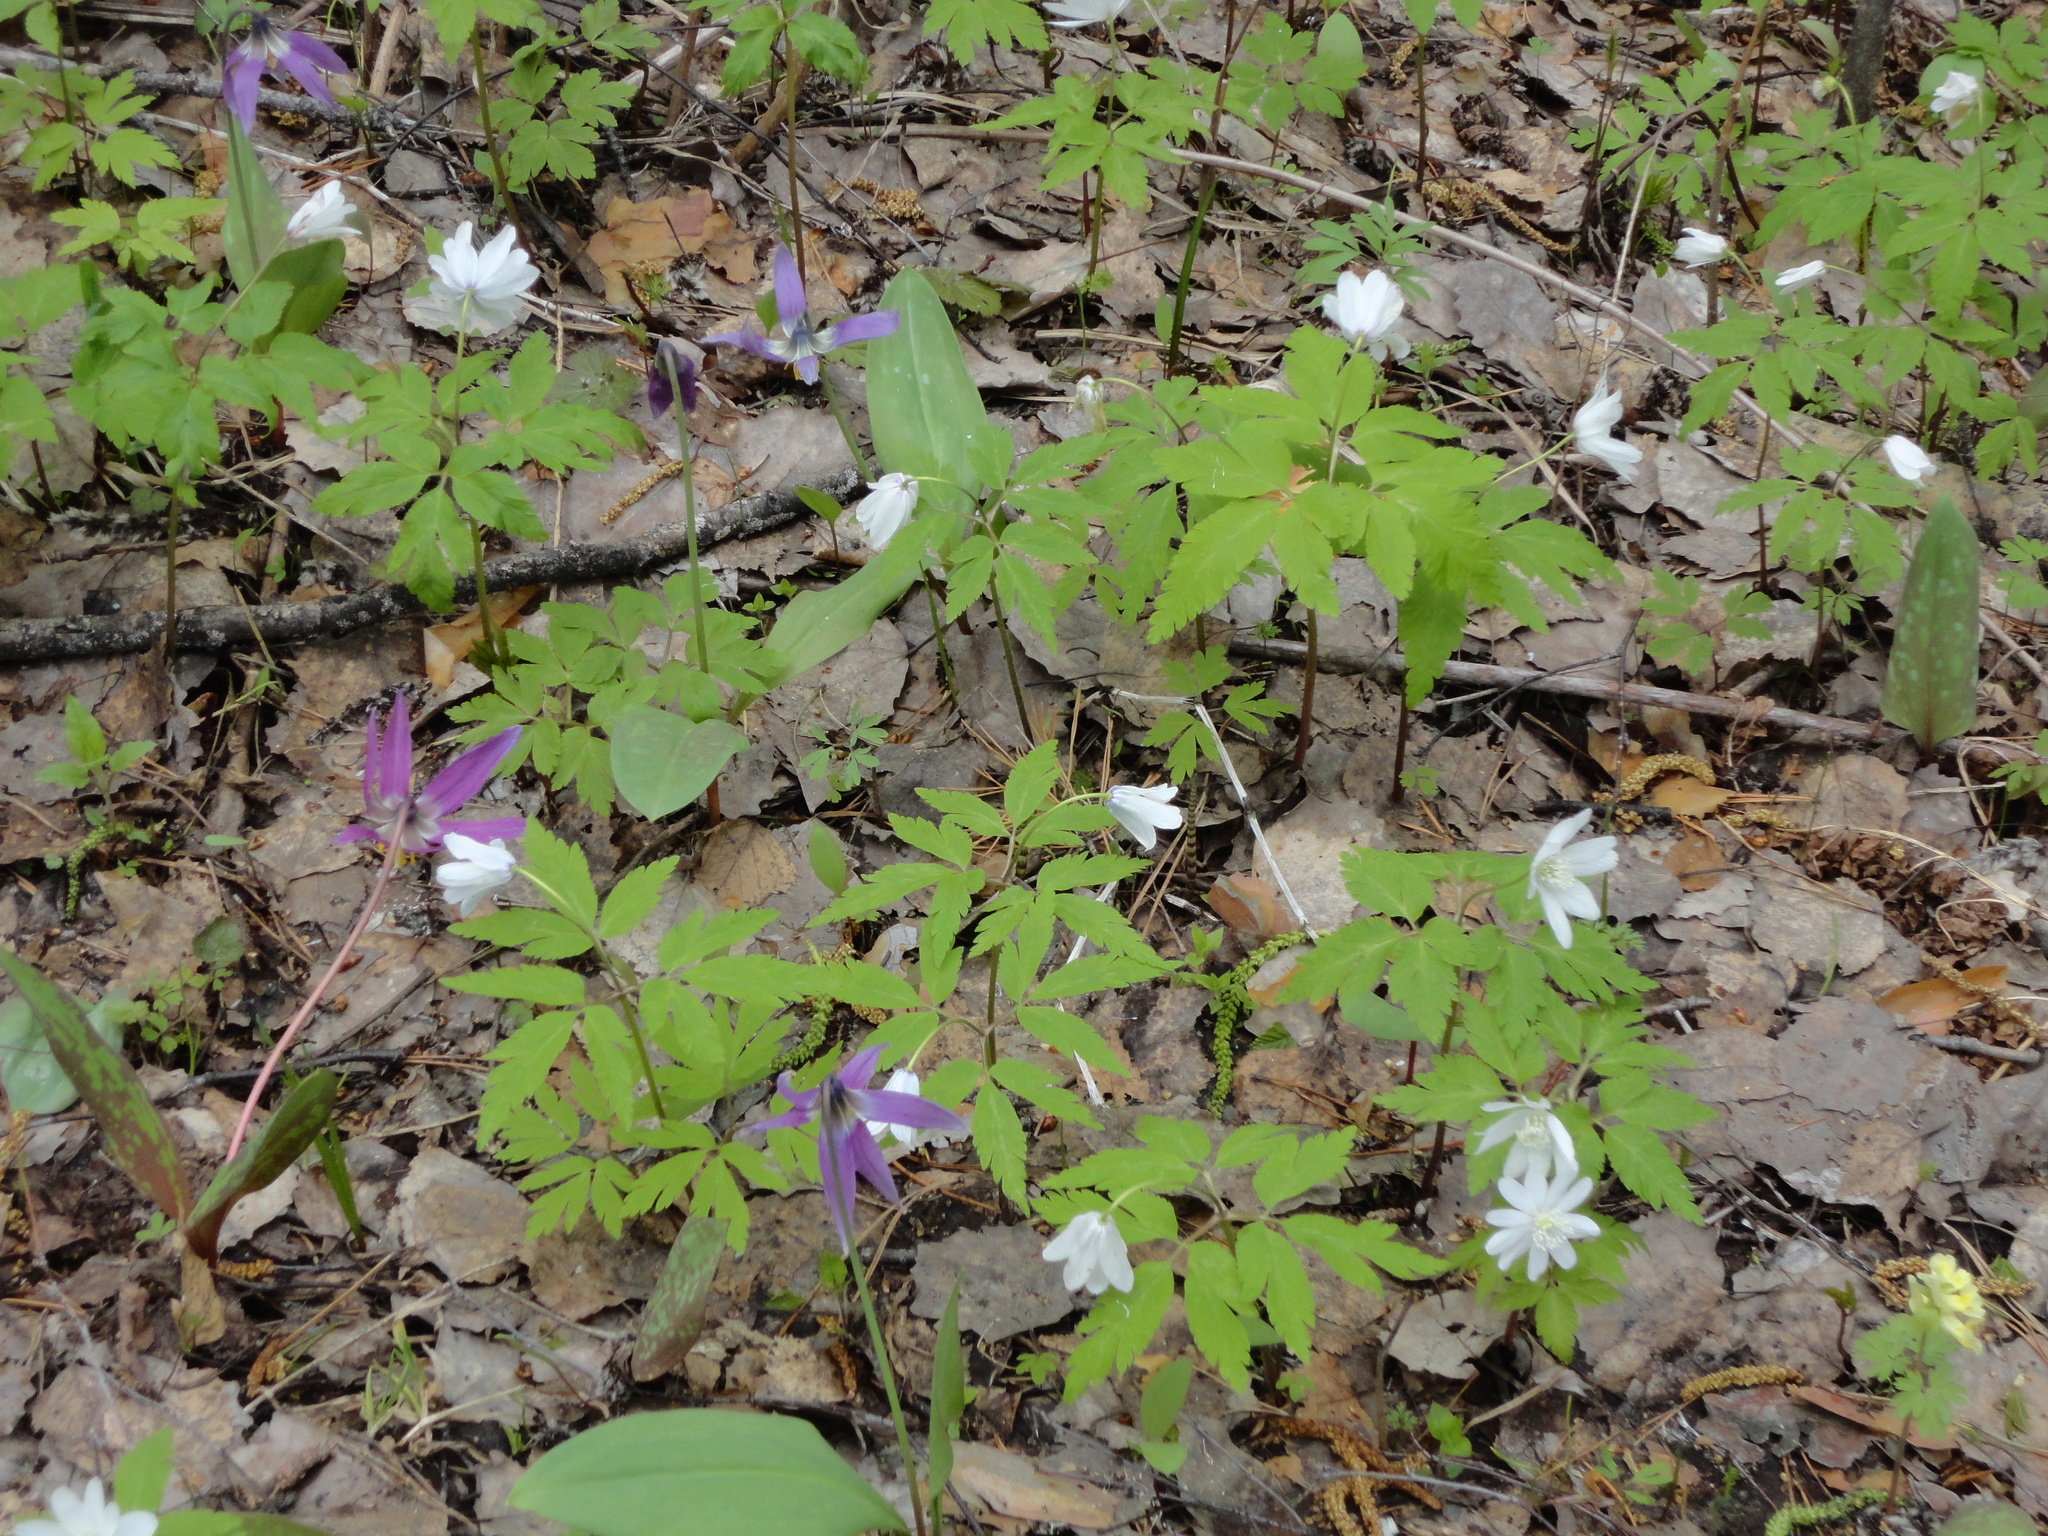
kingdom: Plantae
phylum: Tracheophyta
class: Magnoliopsida
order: Ranunculales
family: Ranunculaceae
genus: Anemone
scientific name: Anemone altaica
